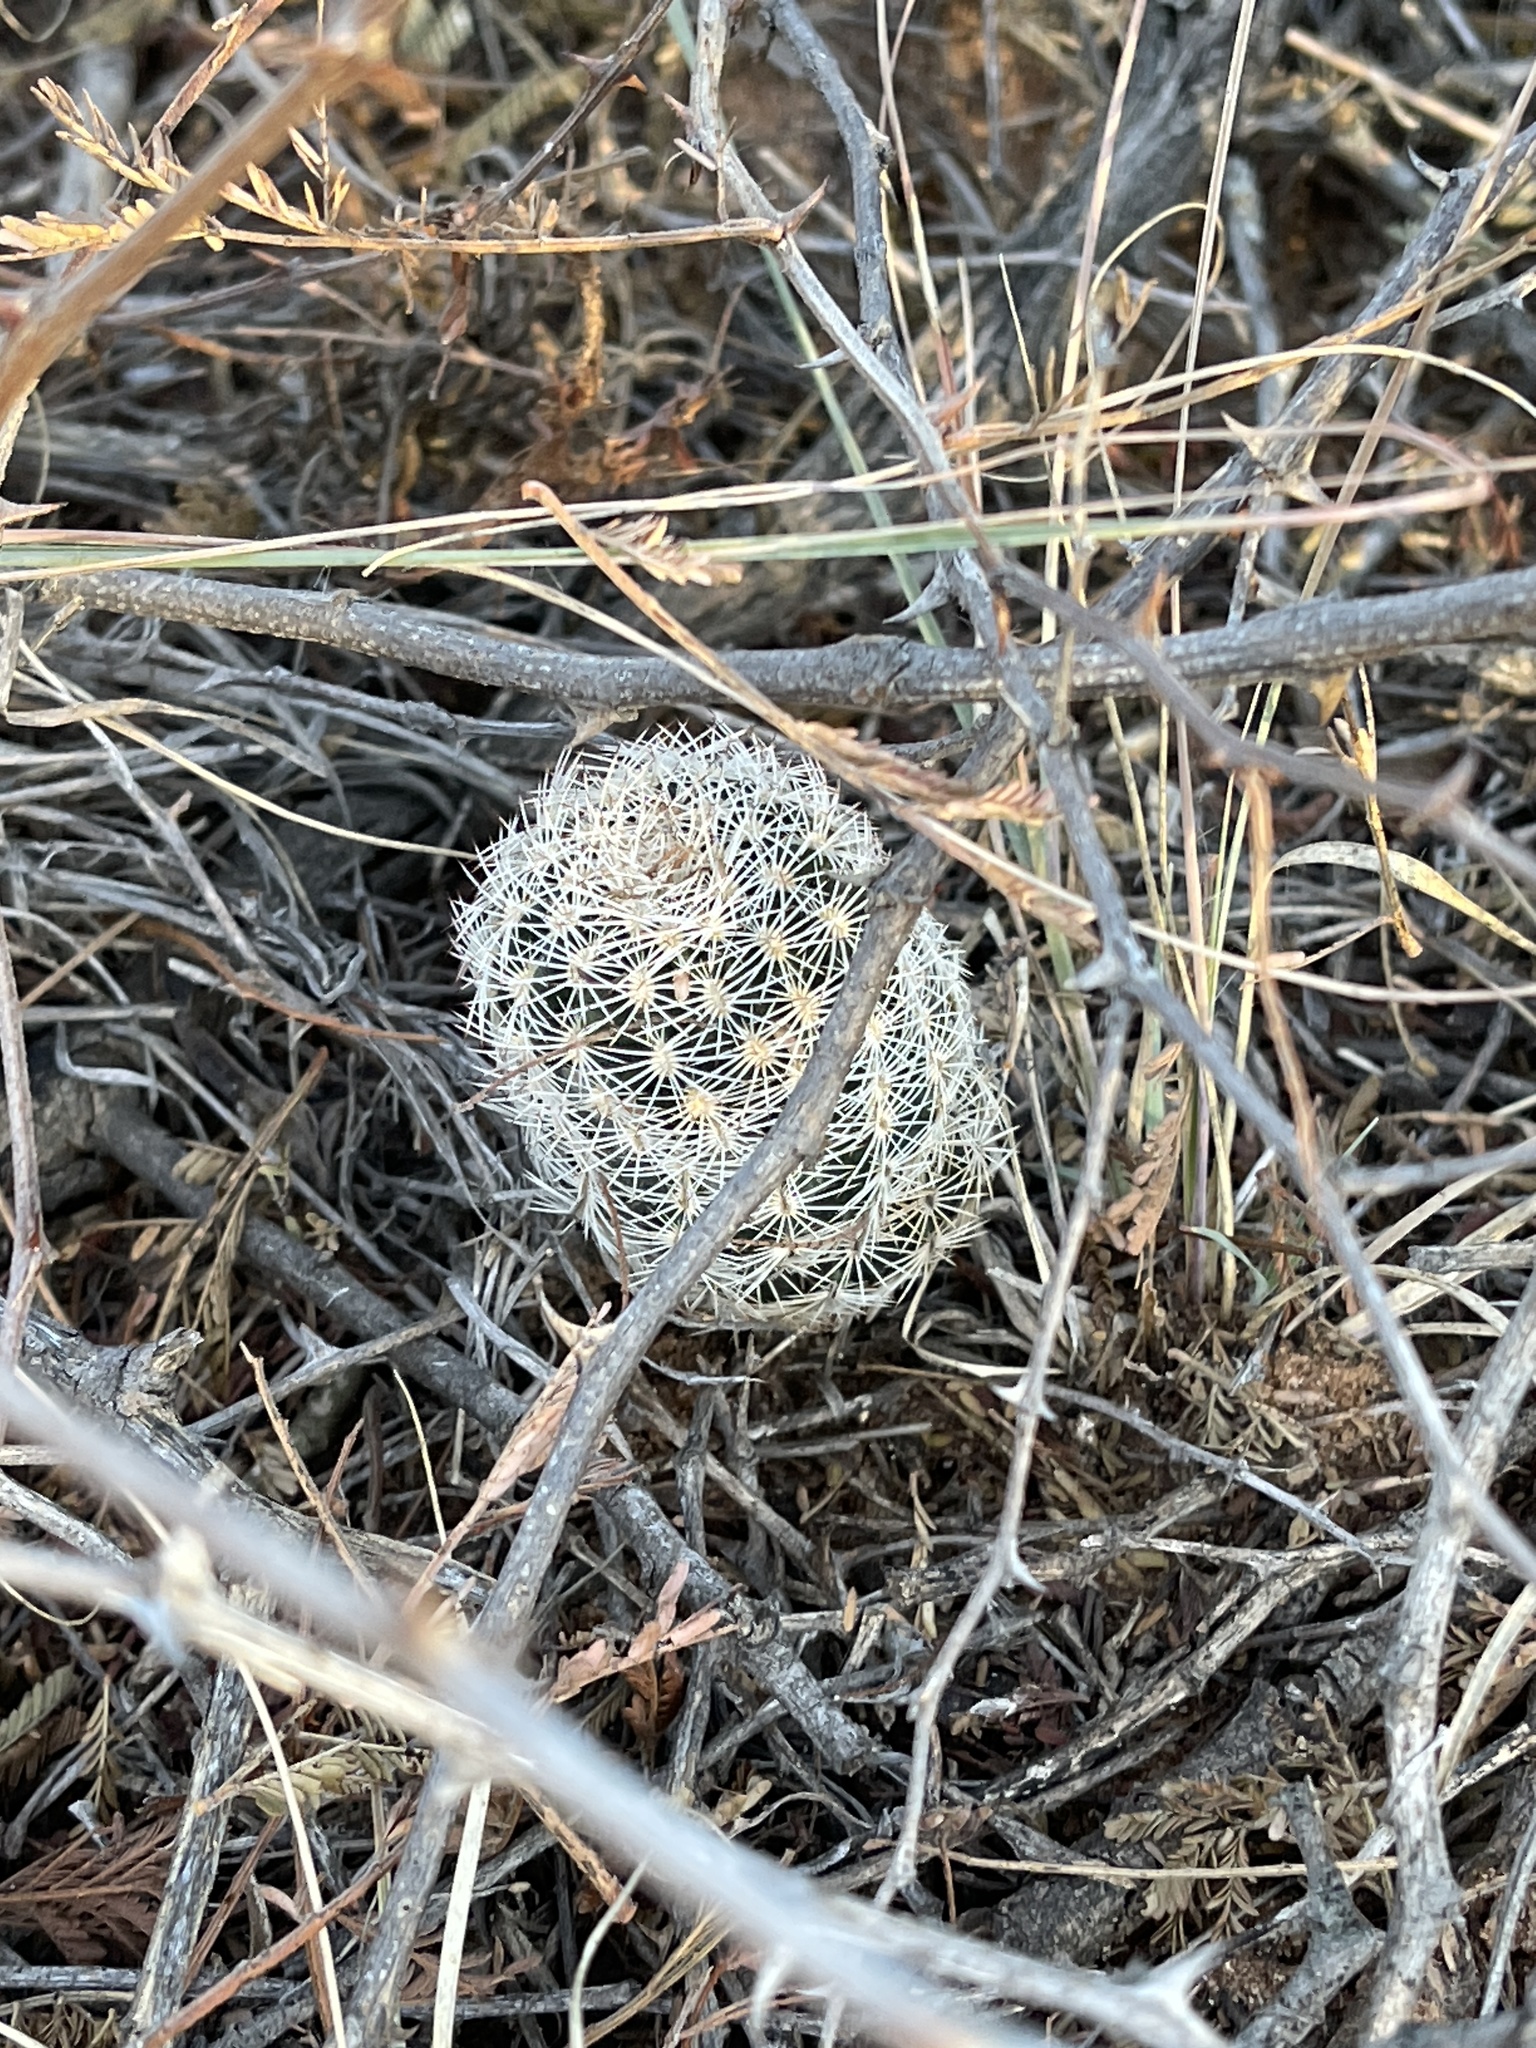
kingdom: Plantae
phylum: Tracheophyta
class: Magnoliopsida
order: Caryophyllales
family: Cactaceae
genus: Echinocereus
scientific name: Echinocereus reichenbachii
